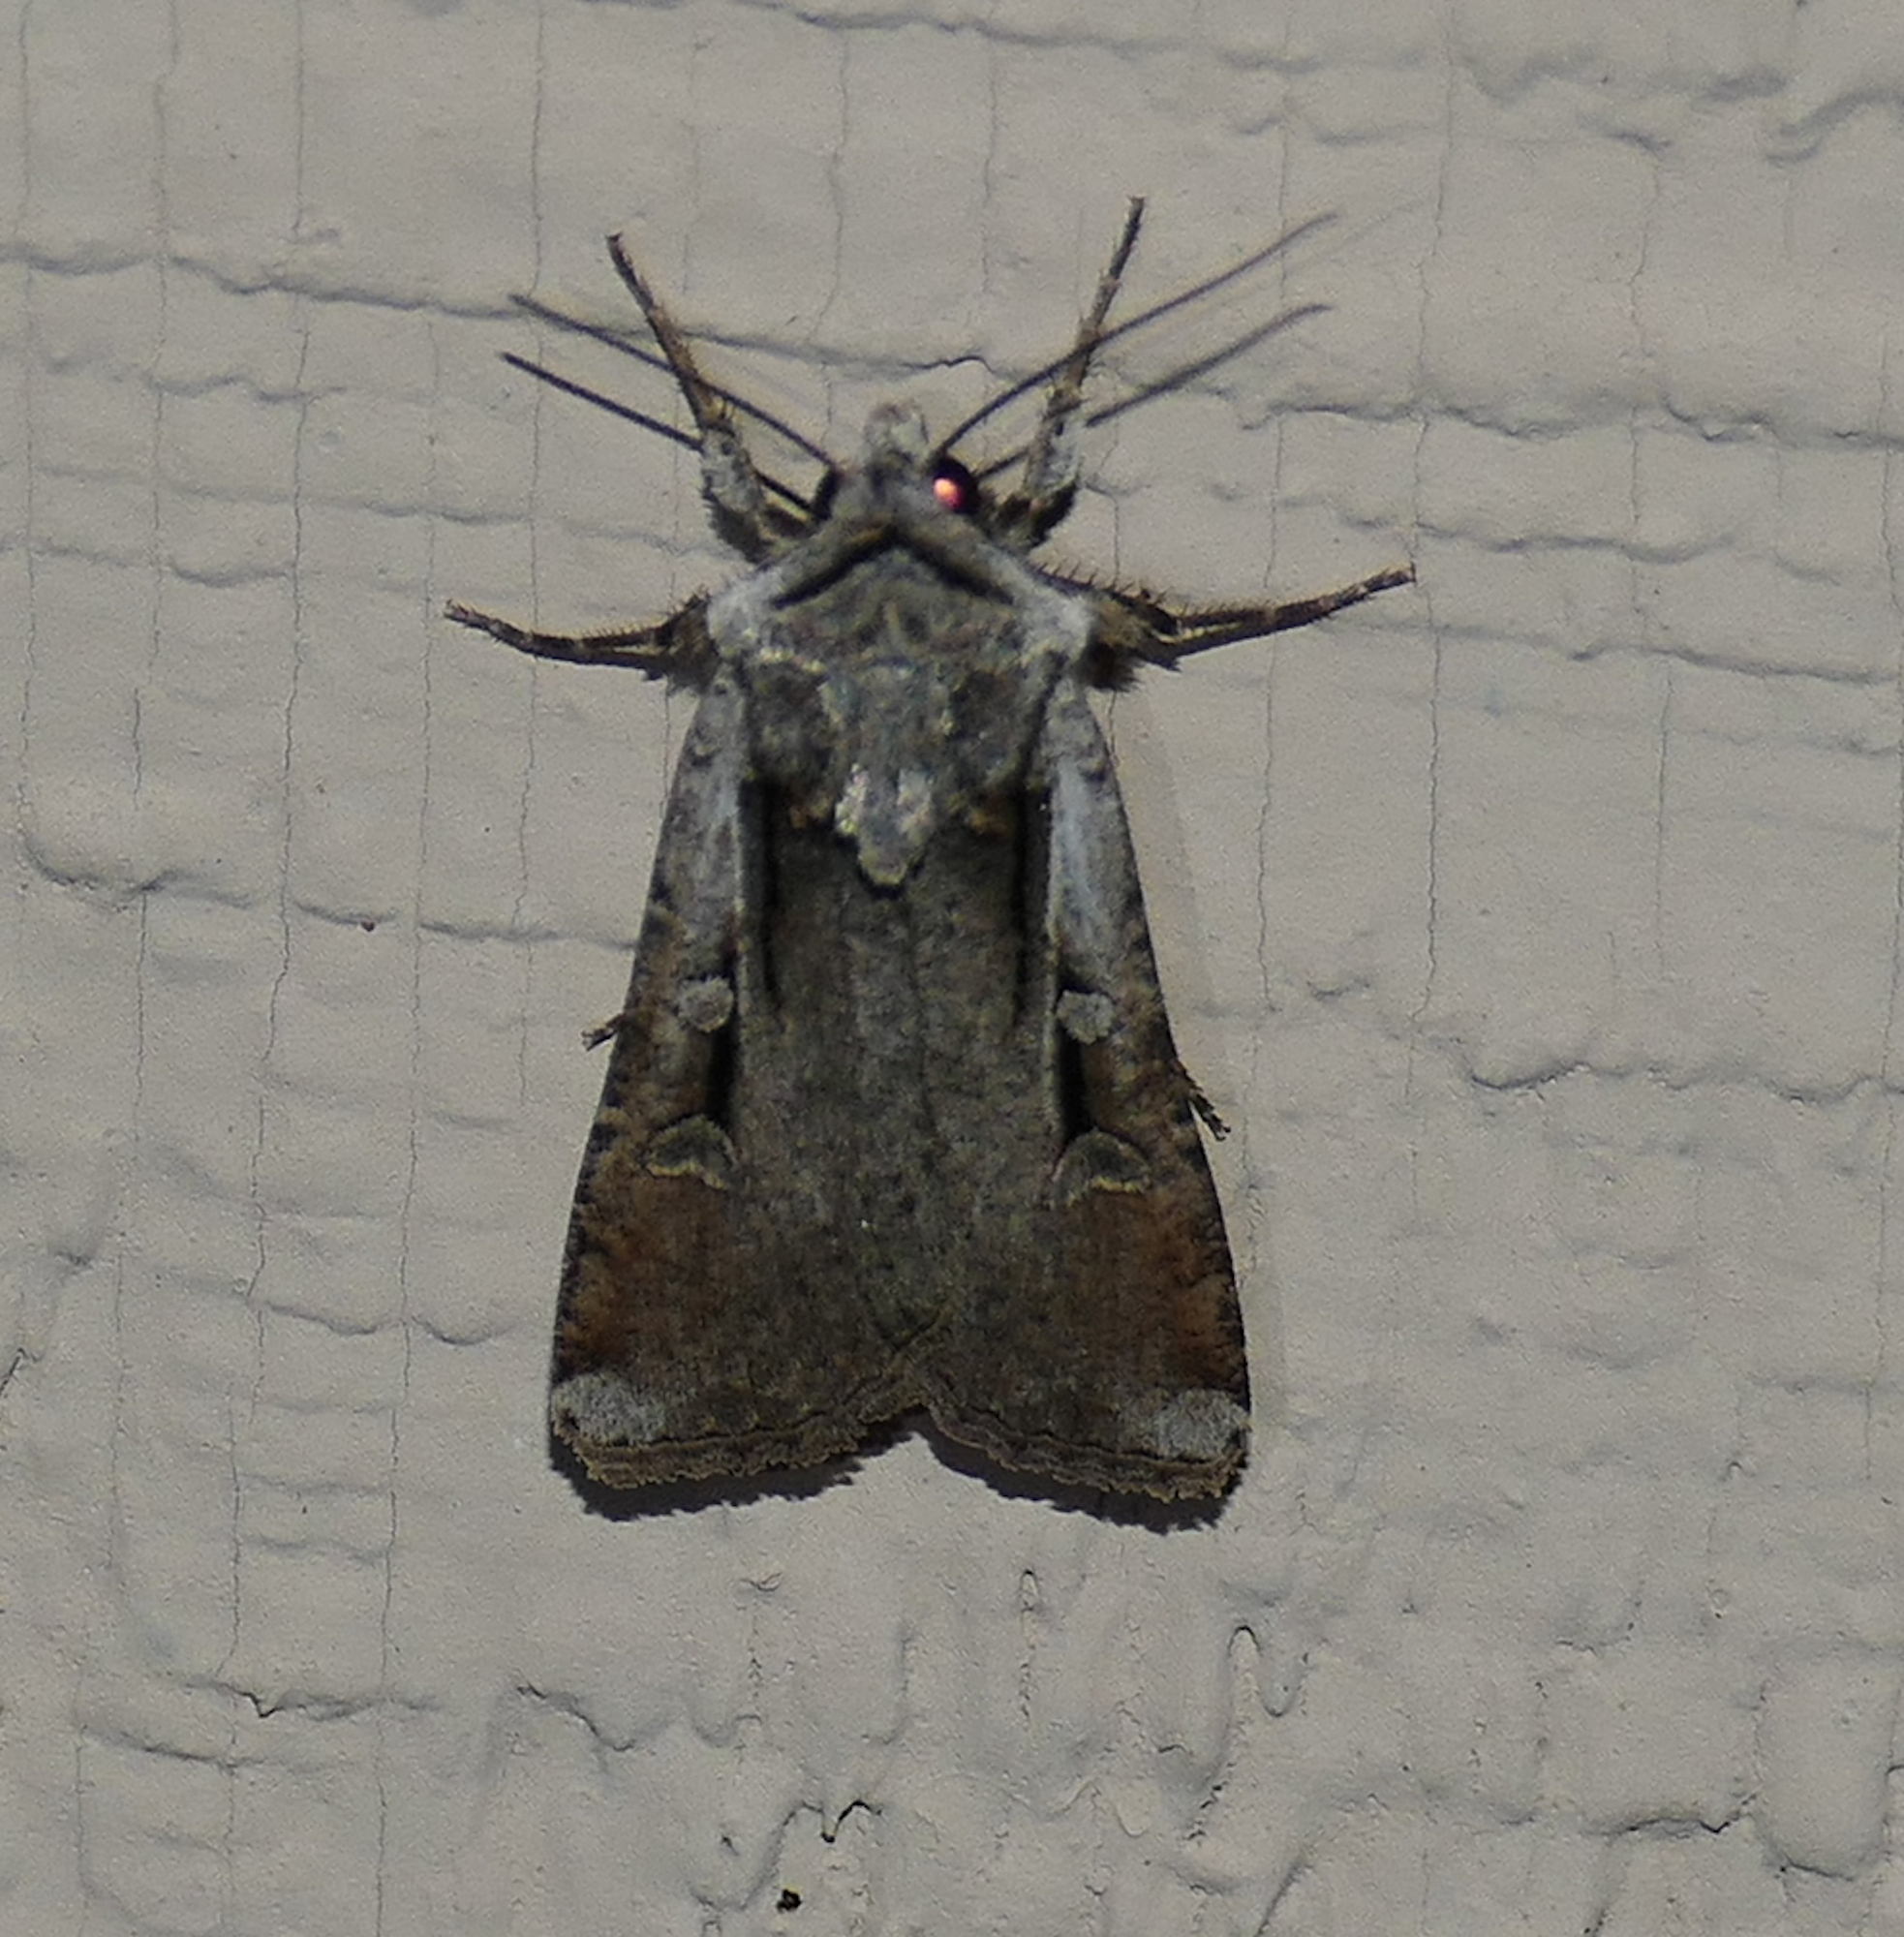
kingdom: Animalia
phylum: Arthropoda
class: Insecta
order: Lepidoptera
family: Noctuidae
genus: Hemieuxoa
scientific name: Hemieuxoa rudens
